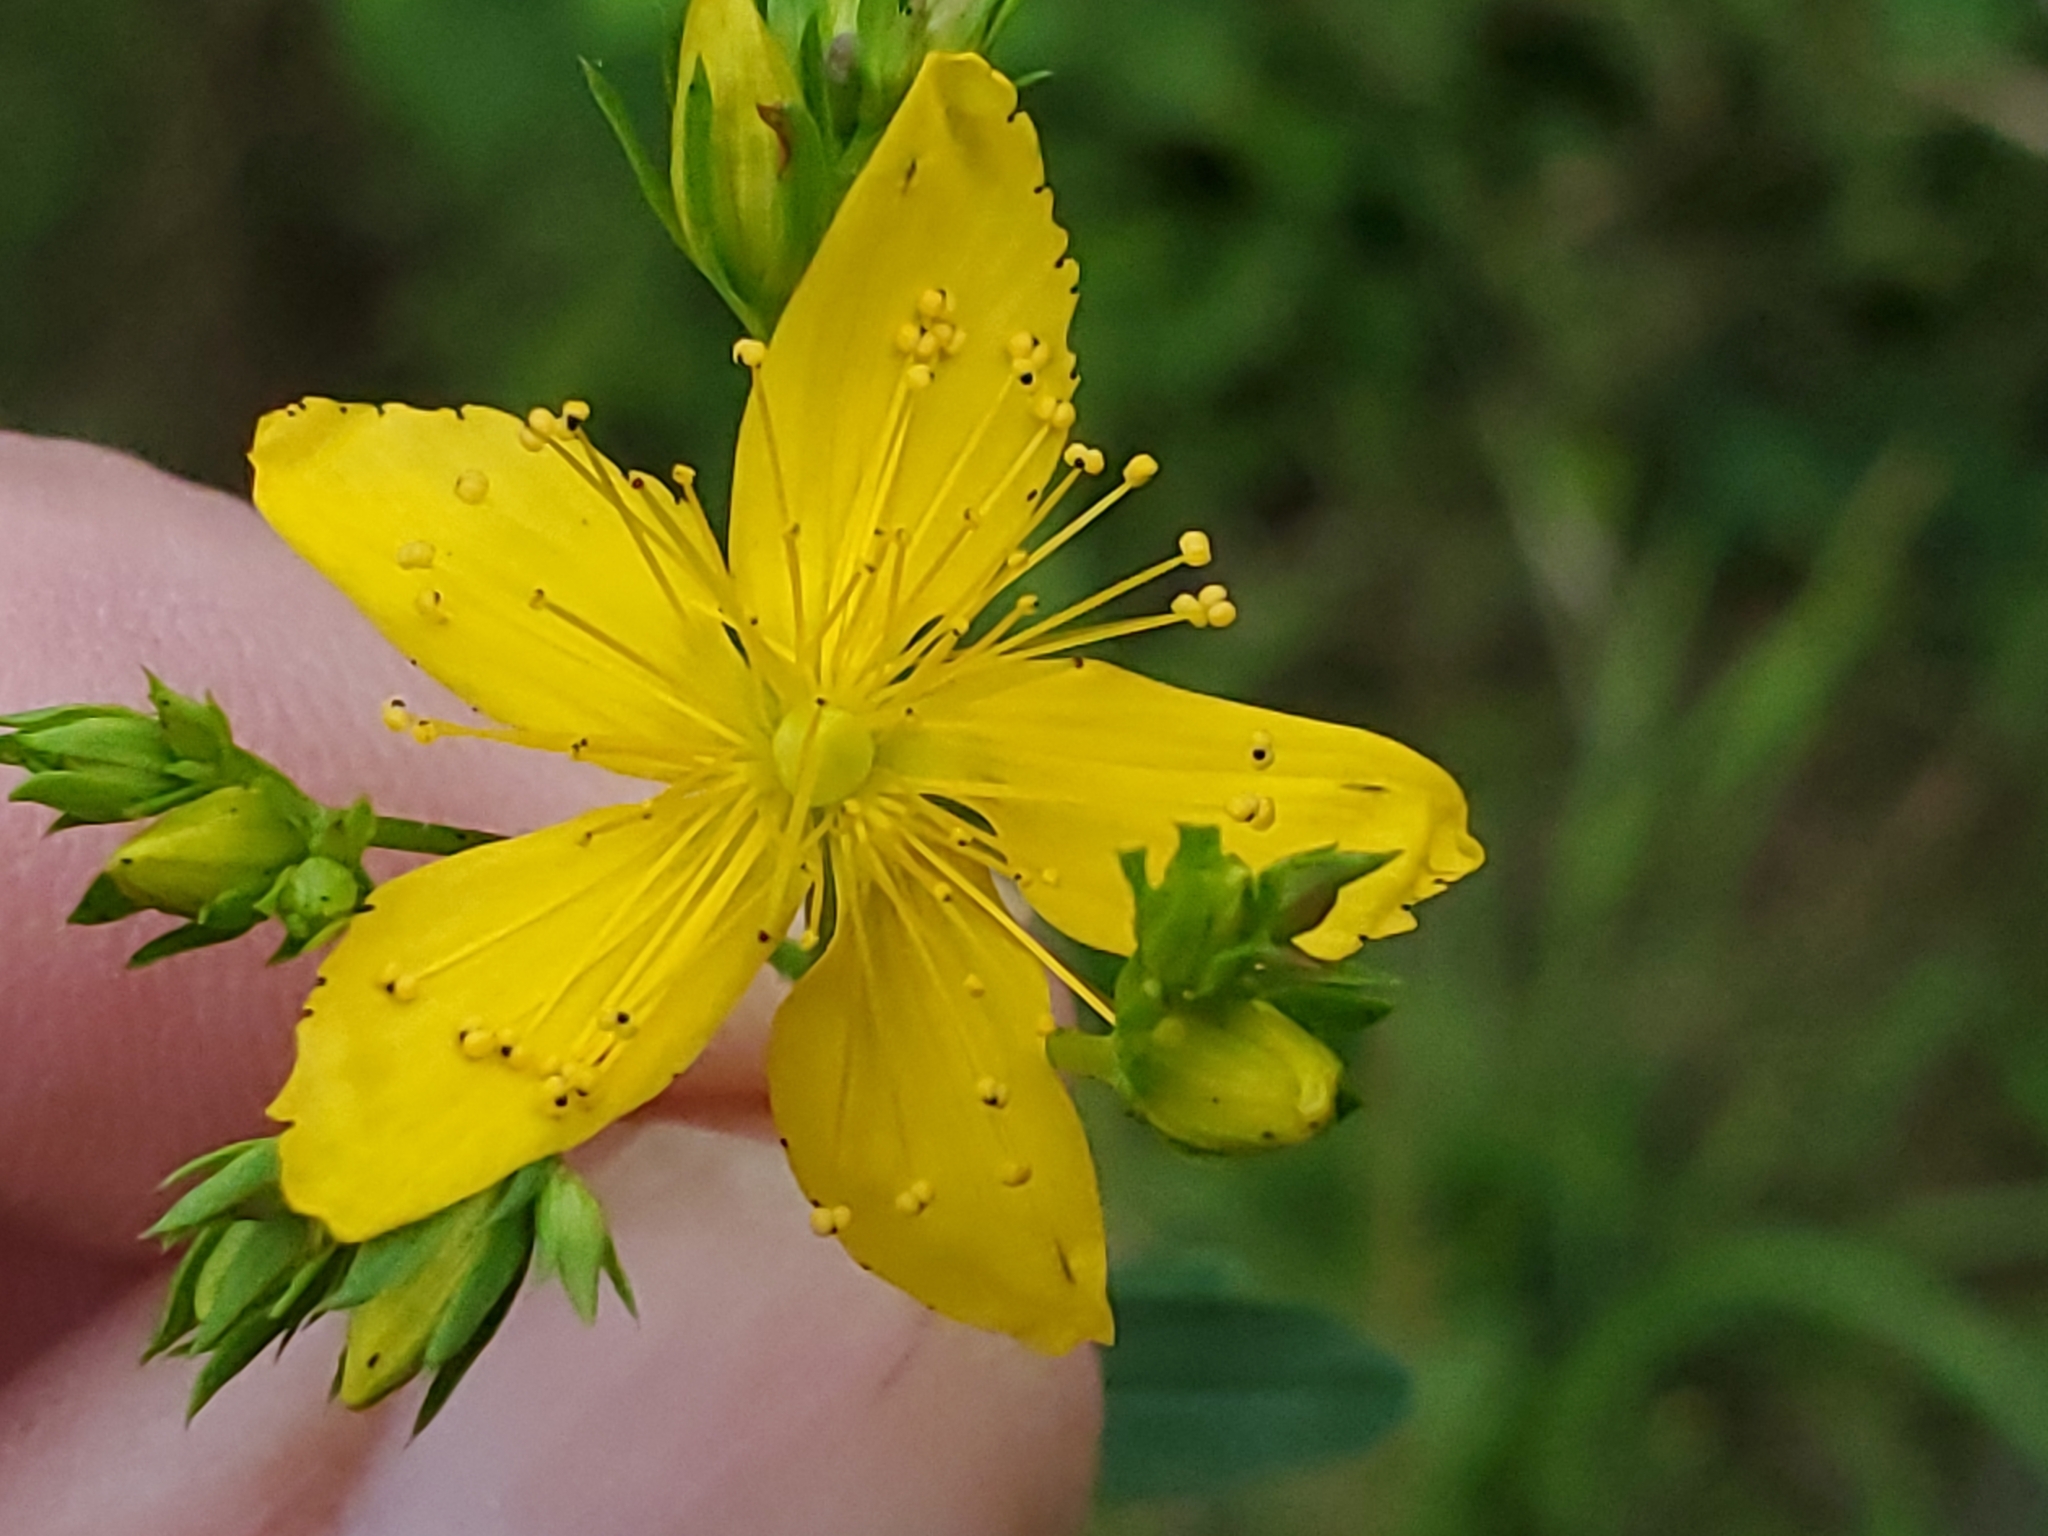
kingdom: Plantae
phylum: Tracheophyta
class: Magnoliopsida
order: Malpighiales
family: Hypericaceae
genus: Hypericum
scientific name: Hypericum perforatum
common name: Common st. johnswort
